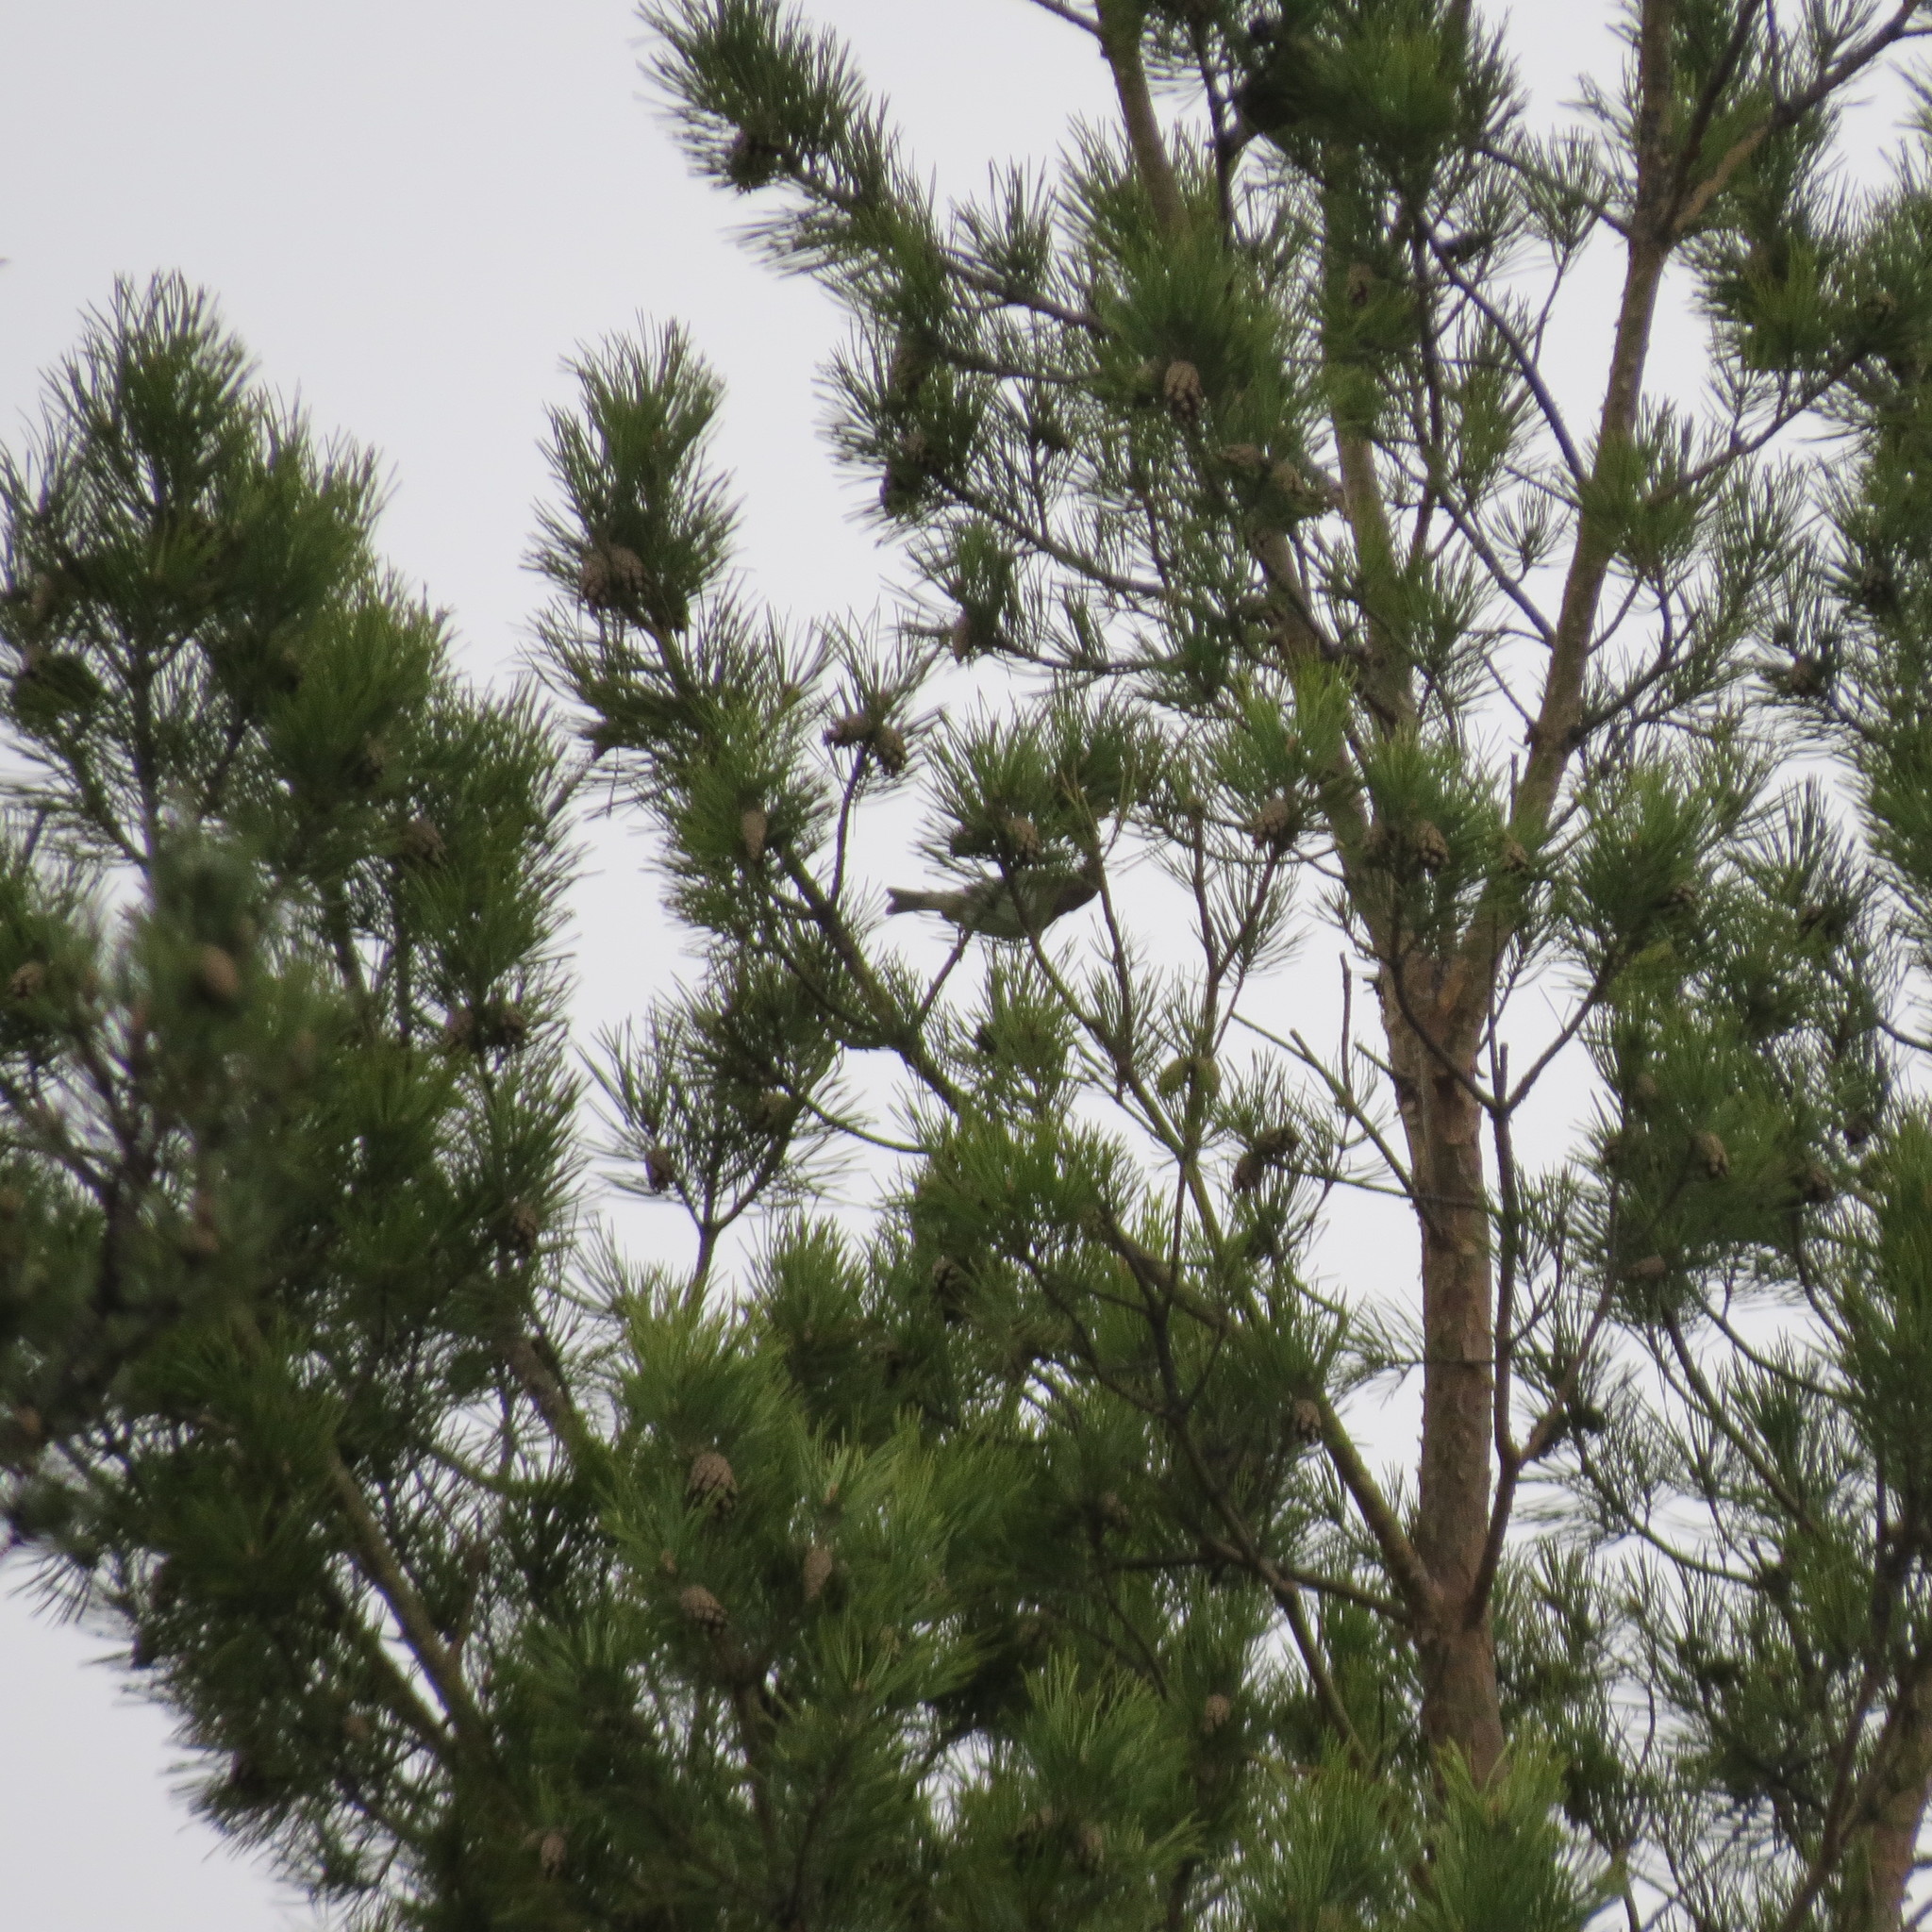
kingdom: Animalia
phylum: Chordata
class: Aves
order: Passeriformes
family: Fringillidae
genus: Loxia
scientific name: Loxia curvirostra
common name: Red crossbill
